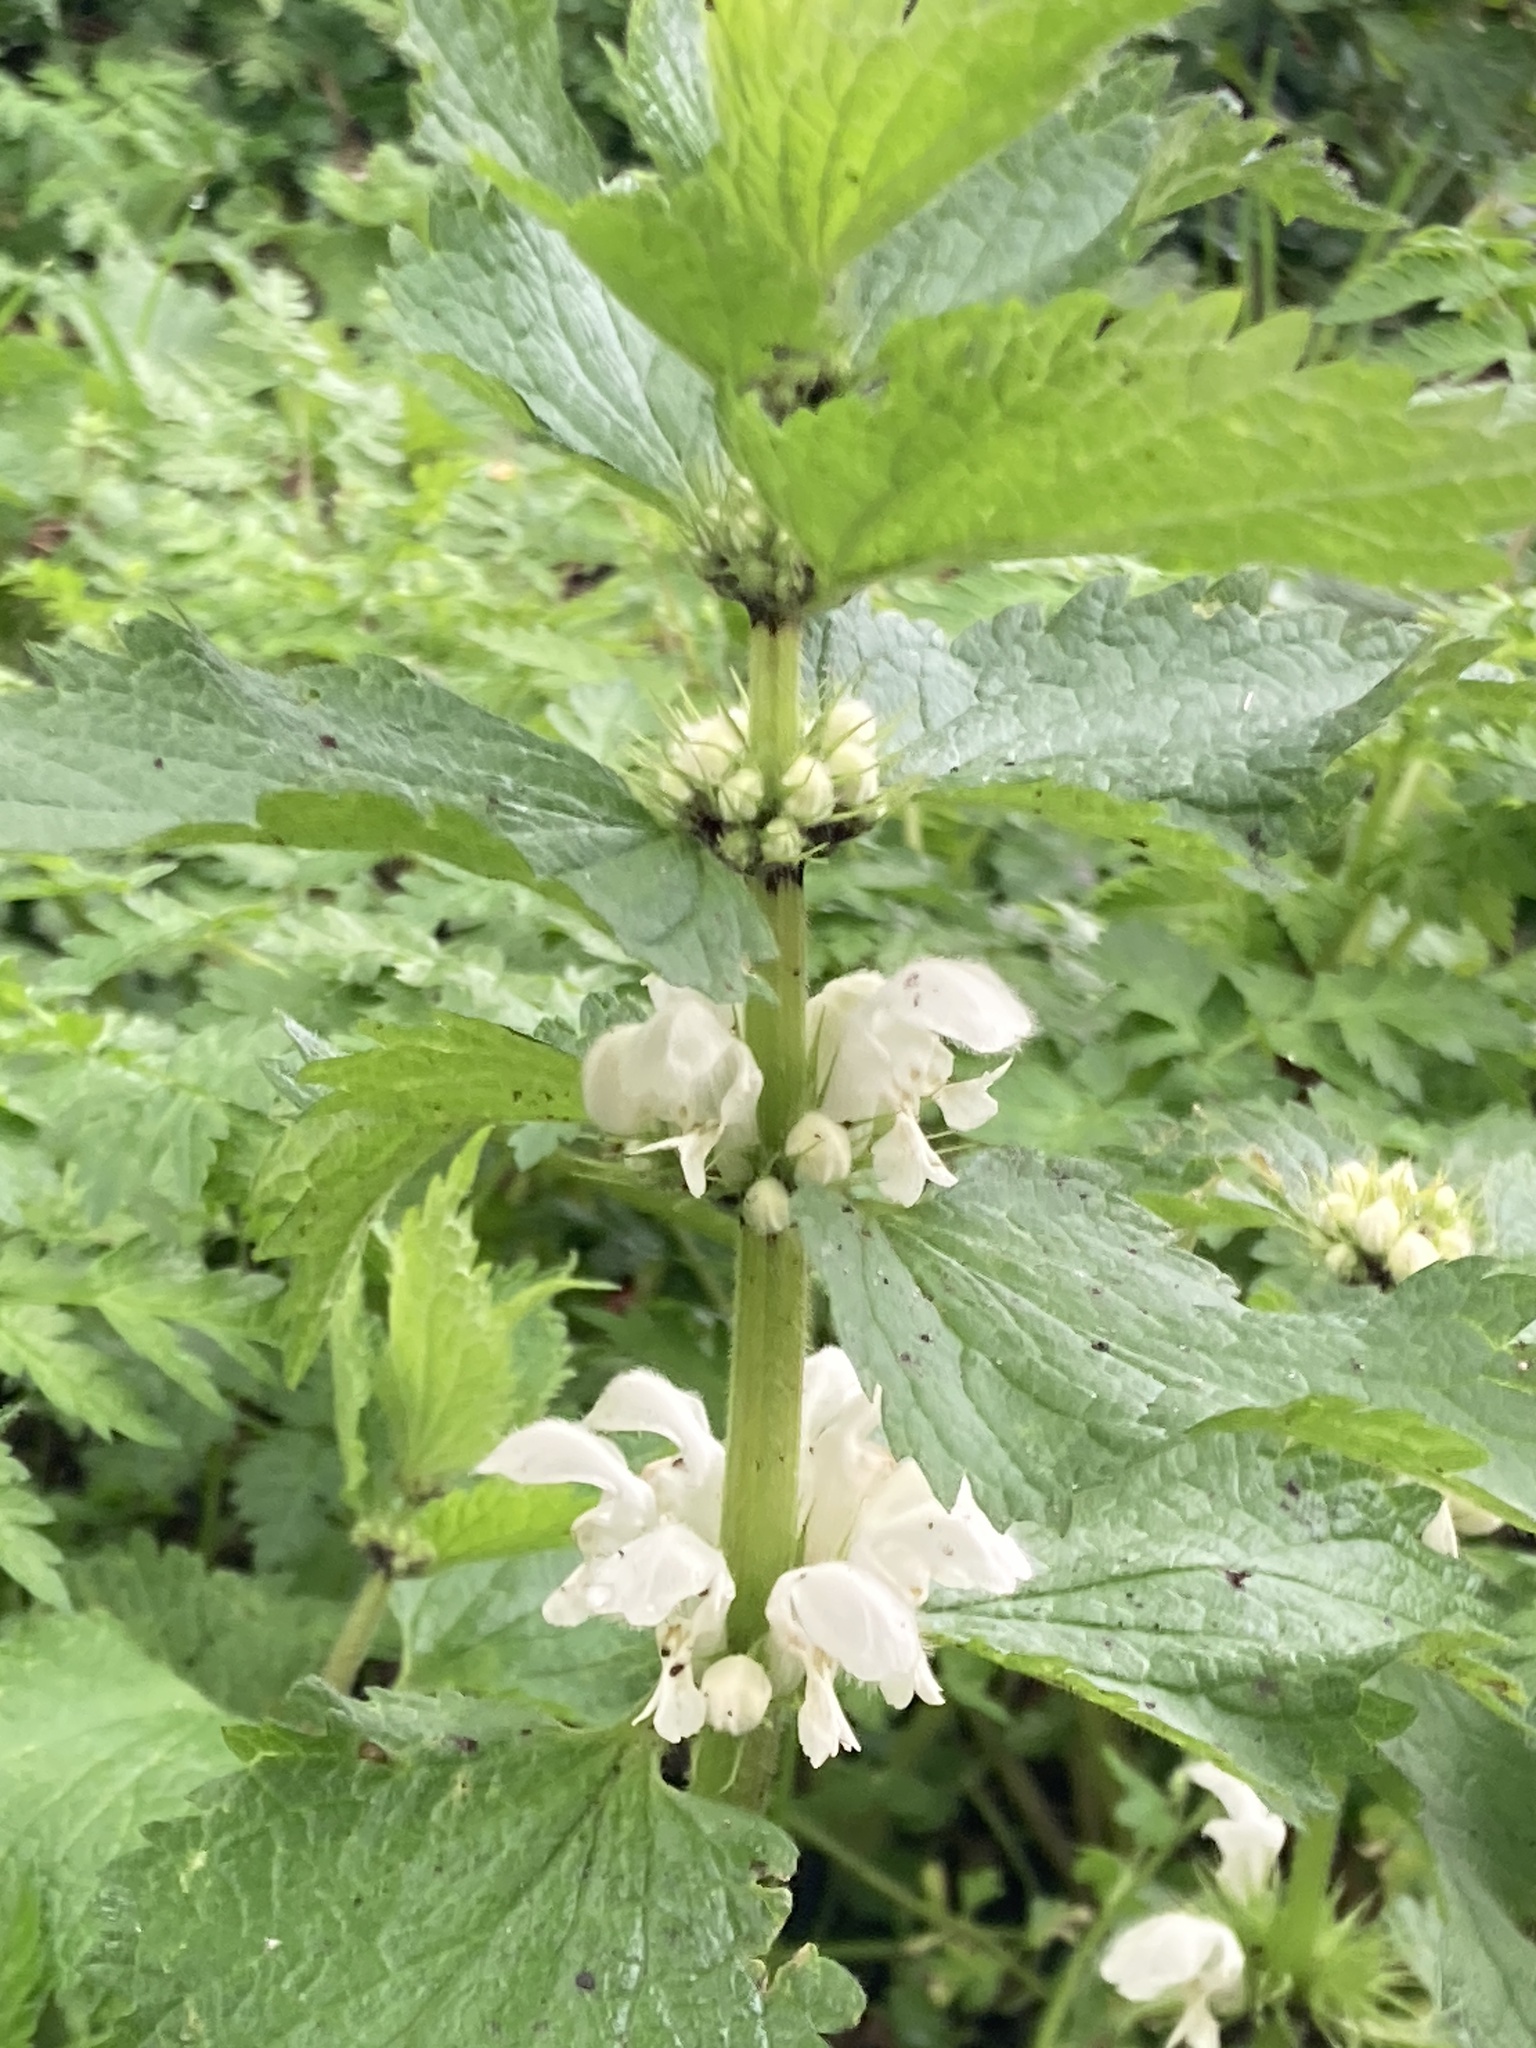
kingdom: Plantae
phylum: Tracheophyta
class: Magnoliopsida
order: Lamiales
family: Lamiaceae
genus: Lamium
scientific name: Lamium album
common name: White dead-nettle
